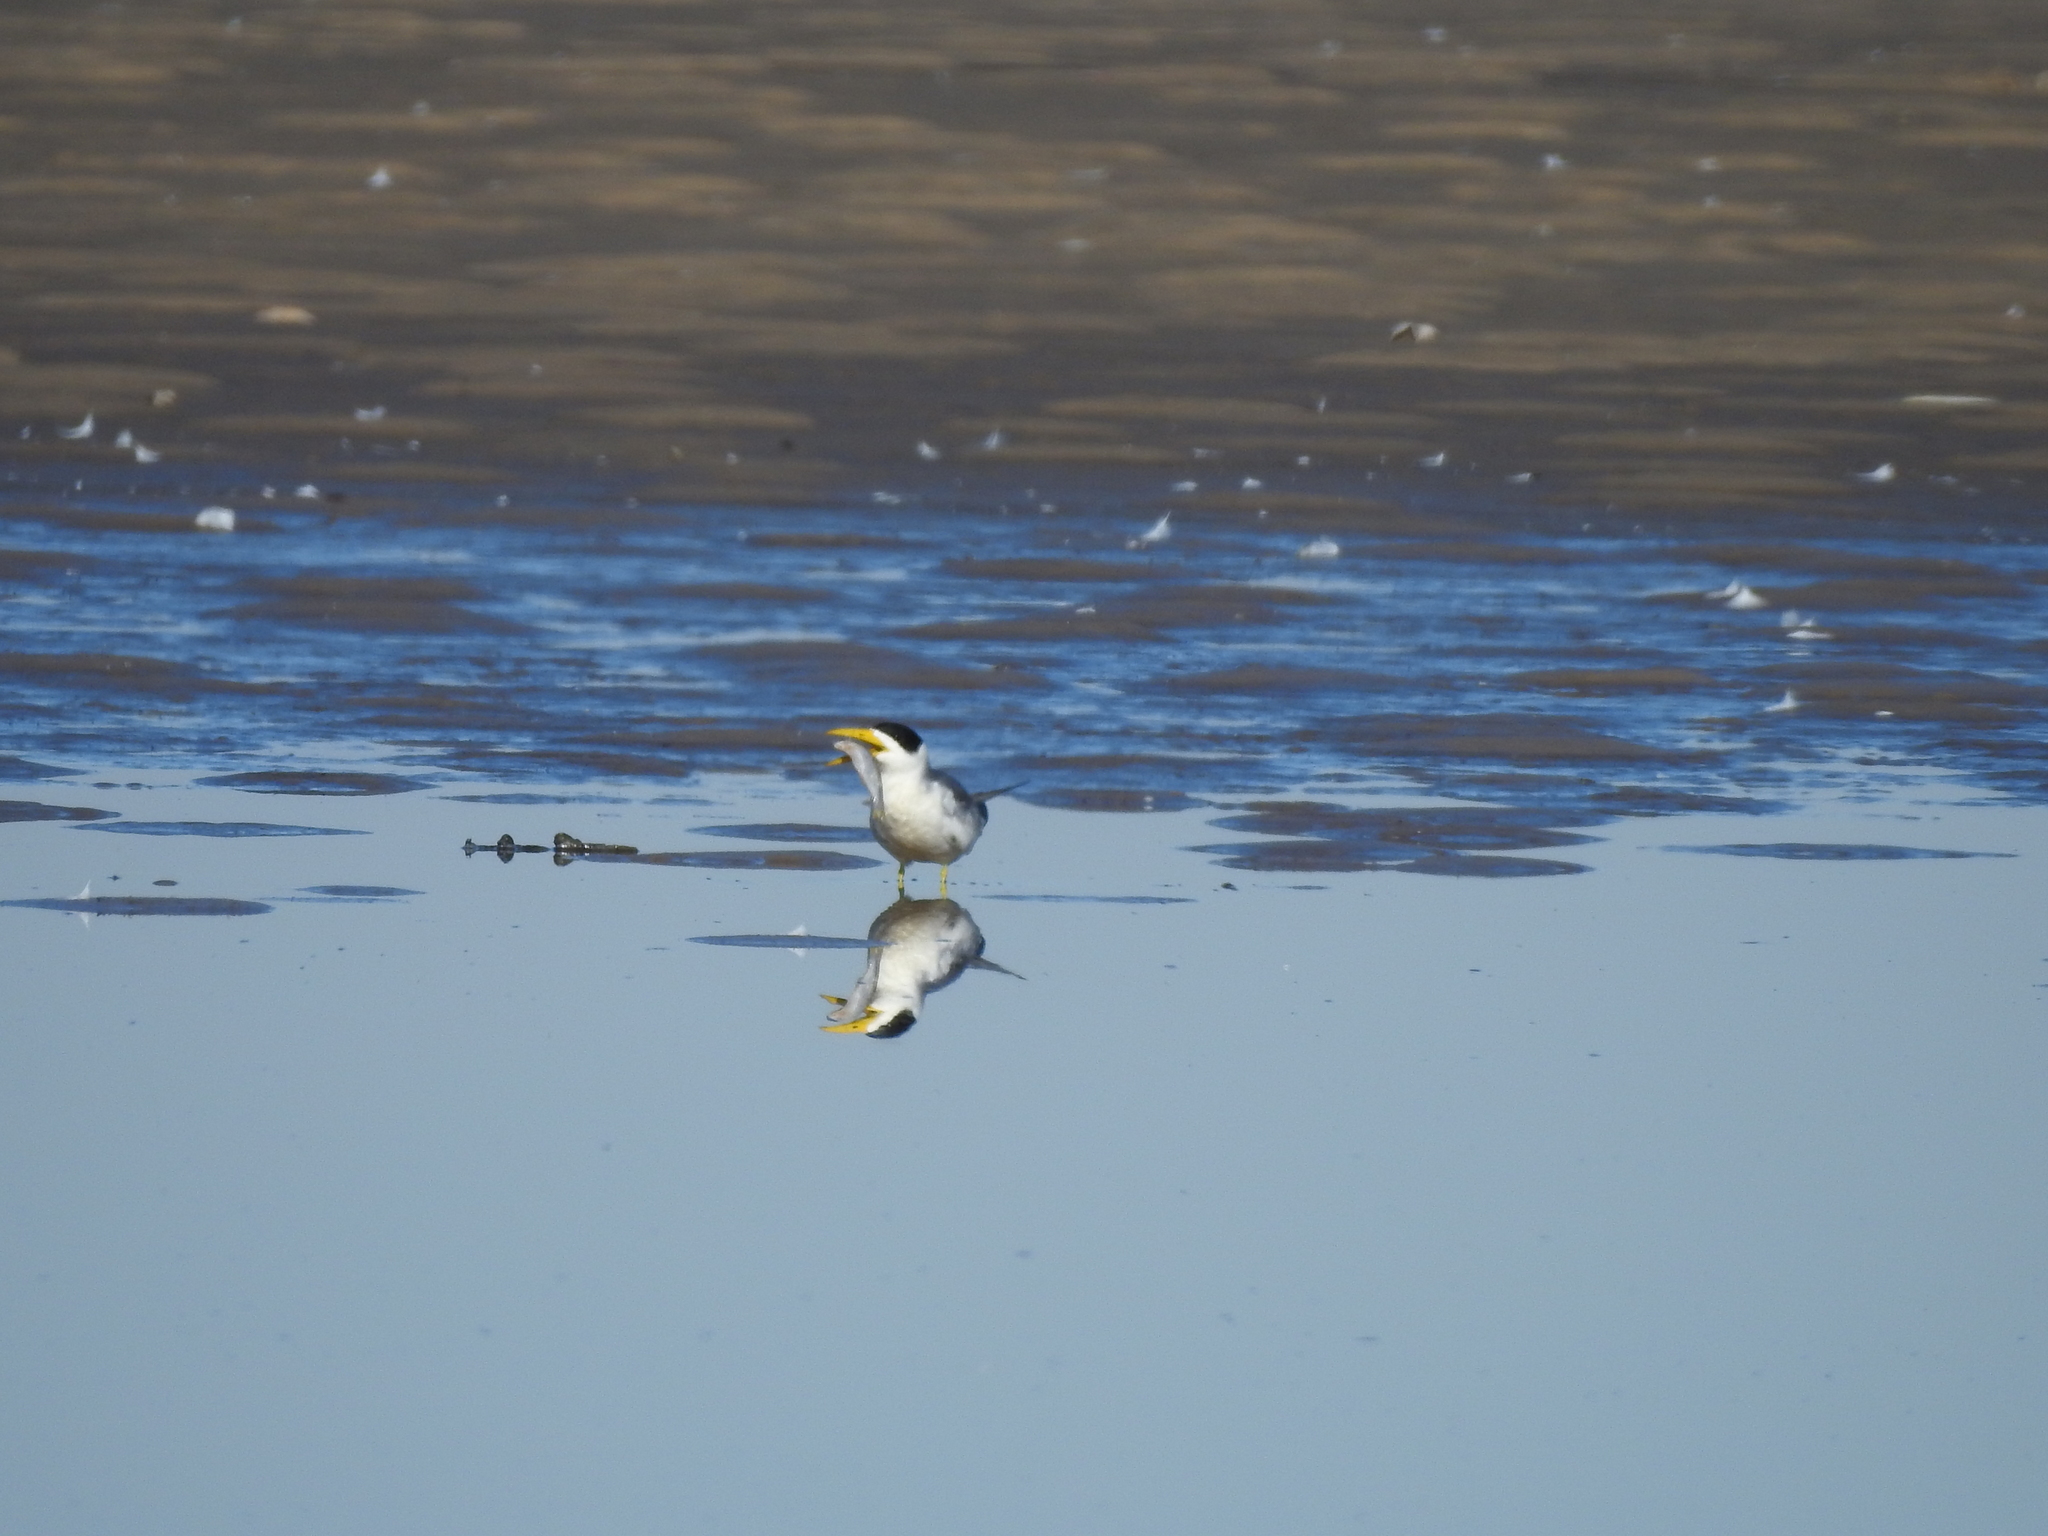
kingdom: Animalia
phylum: Chordata
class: Aves
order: Charadriiformes
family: Laridae
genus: Phaetusa
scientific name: Phaetusa simplex
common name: Large-billed tern
